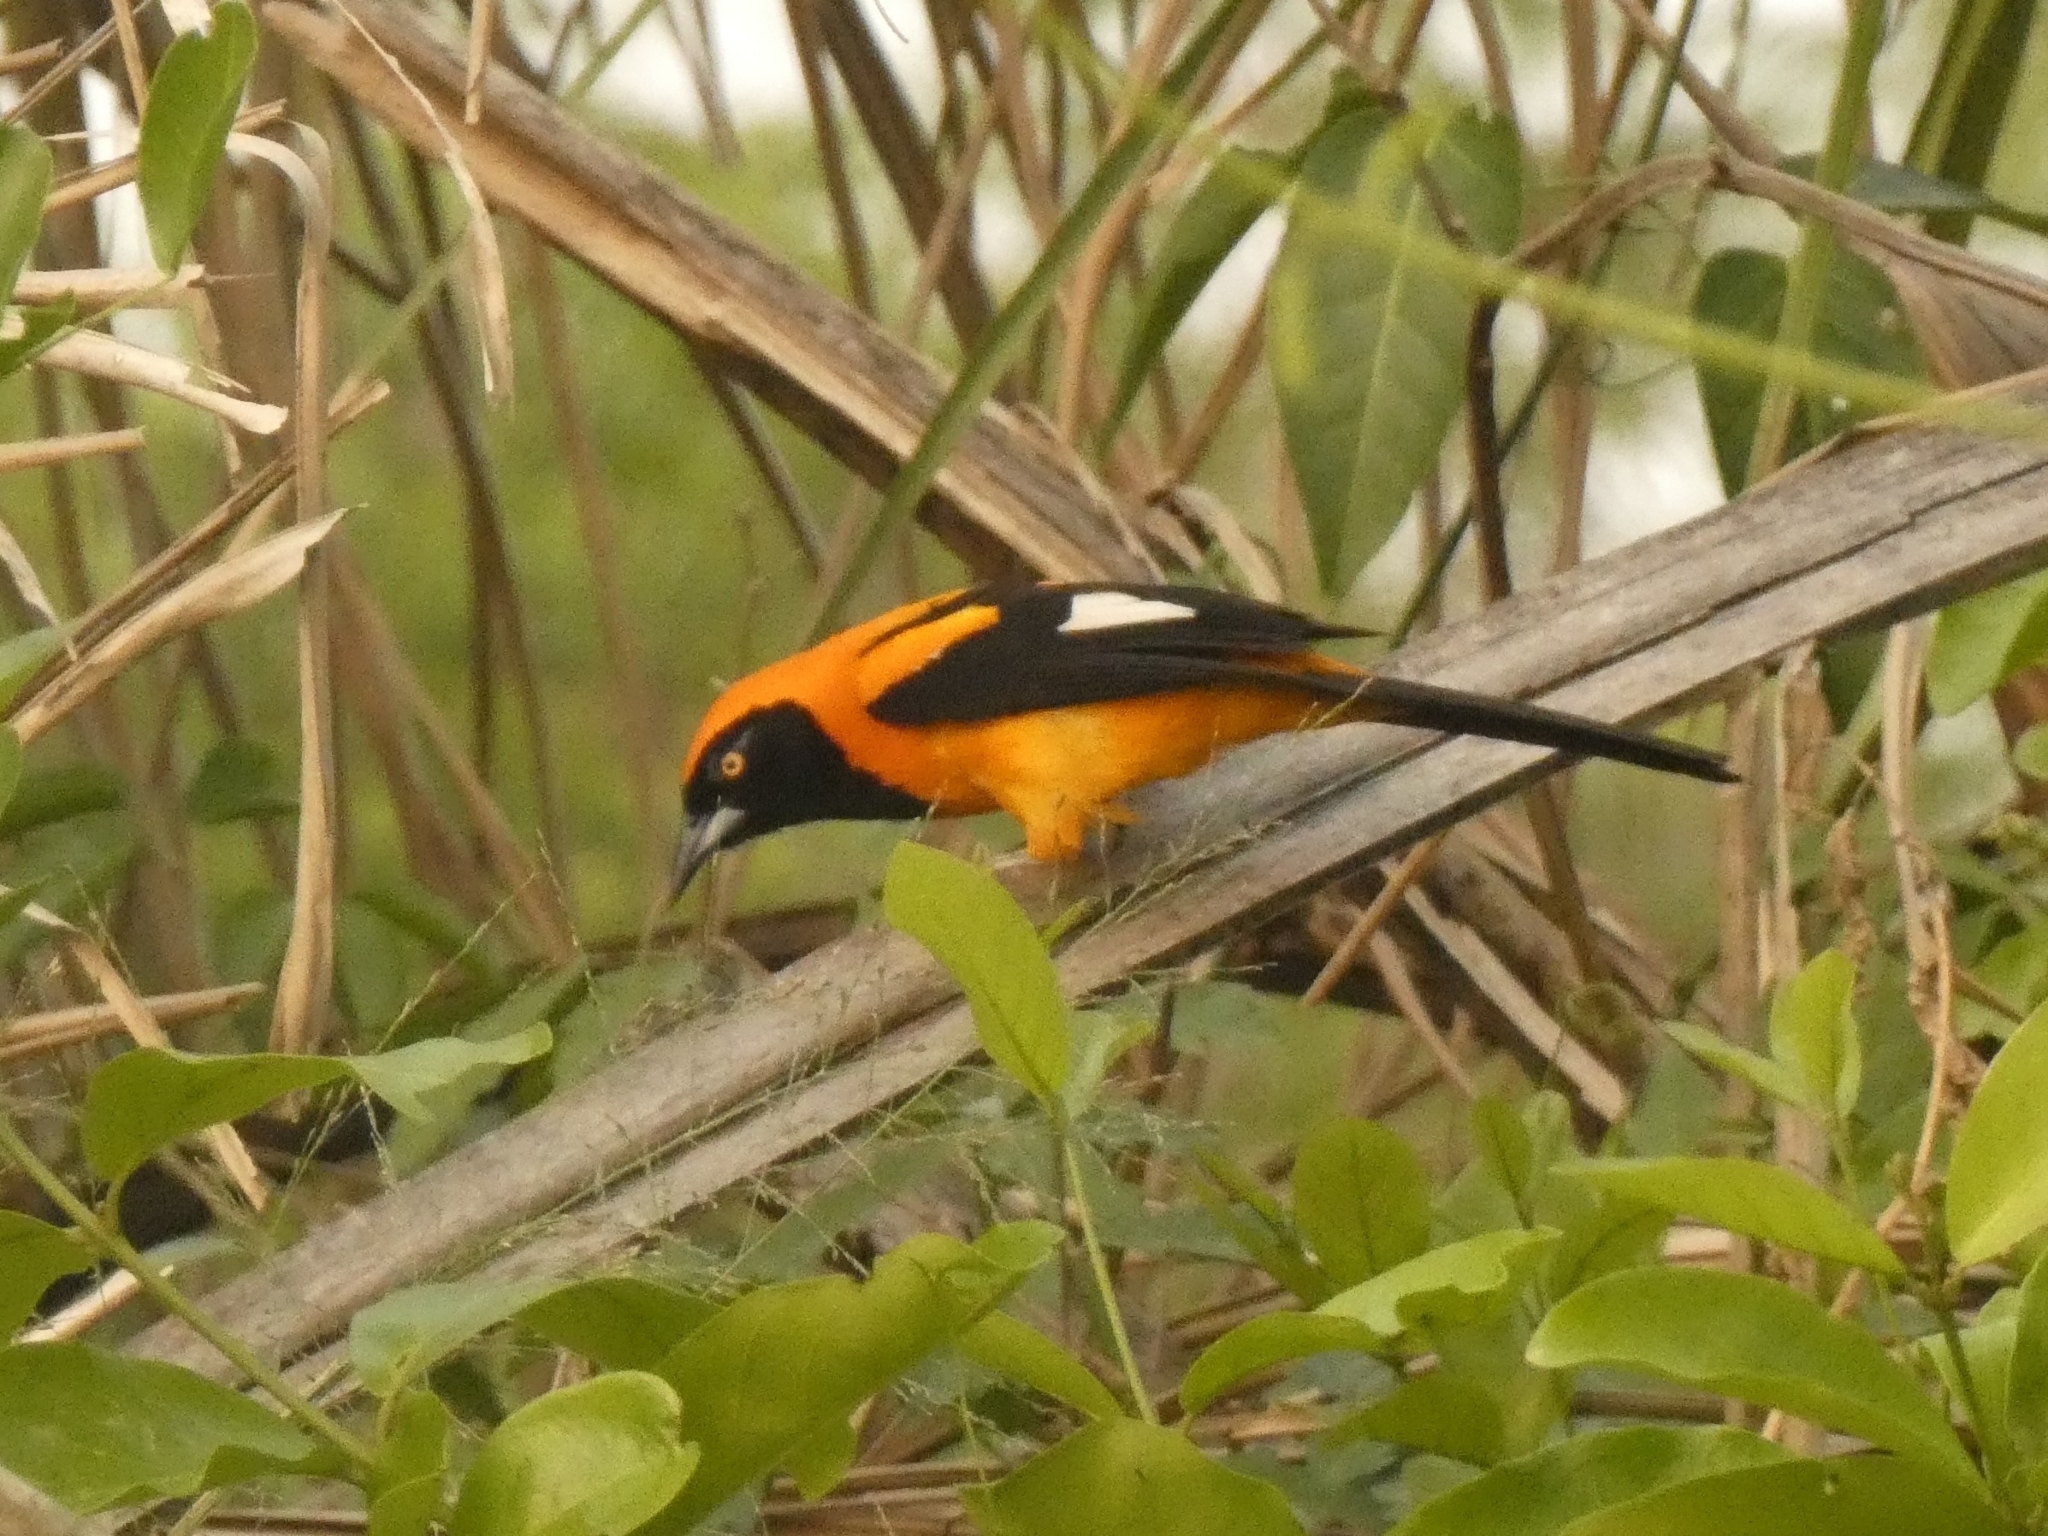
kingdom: Animalia
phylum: Chordata
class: Aves
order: Passeriformes
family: Icteridae
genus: Icterus
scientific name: Icterus icterus
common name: Venezuelan troupial
